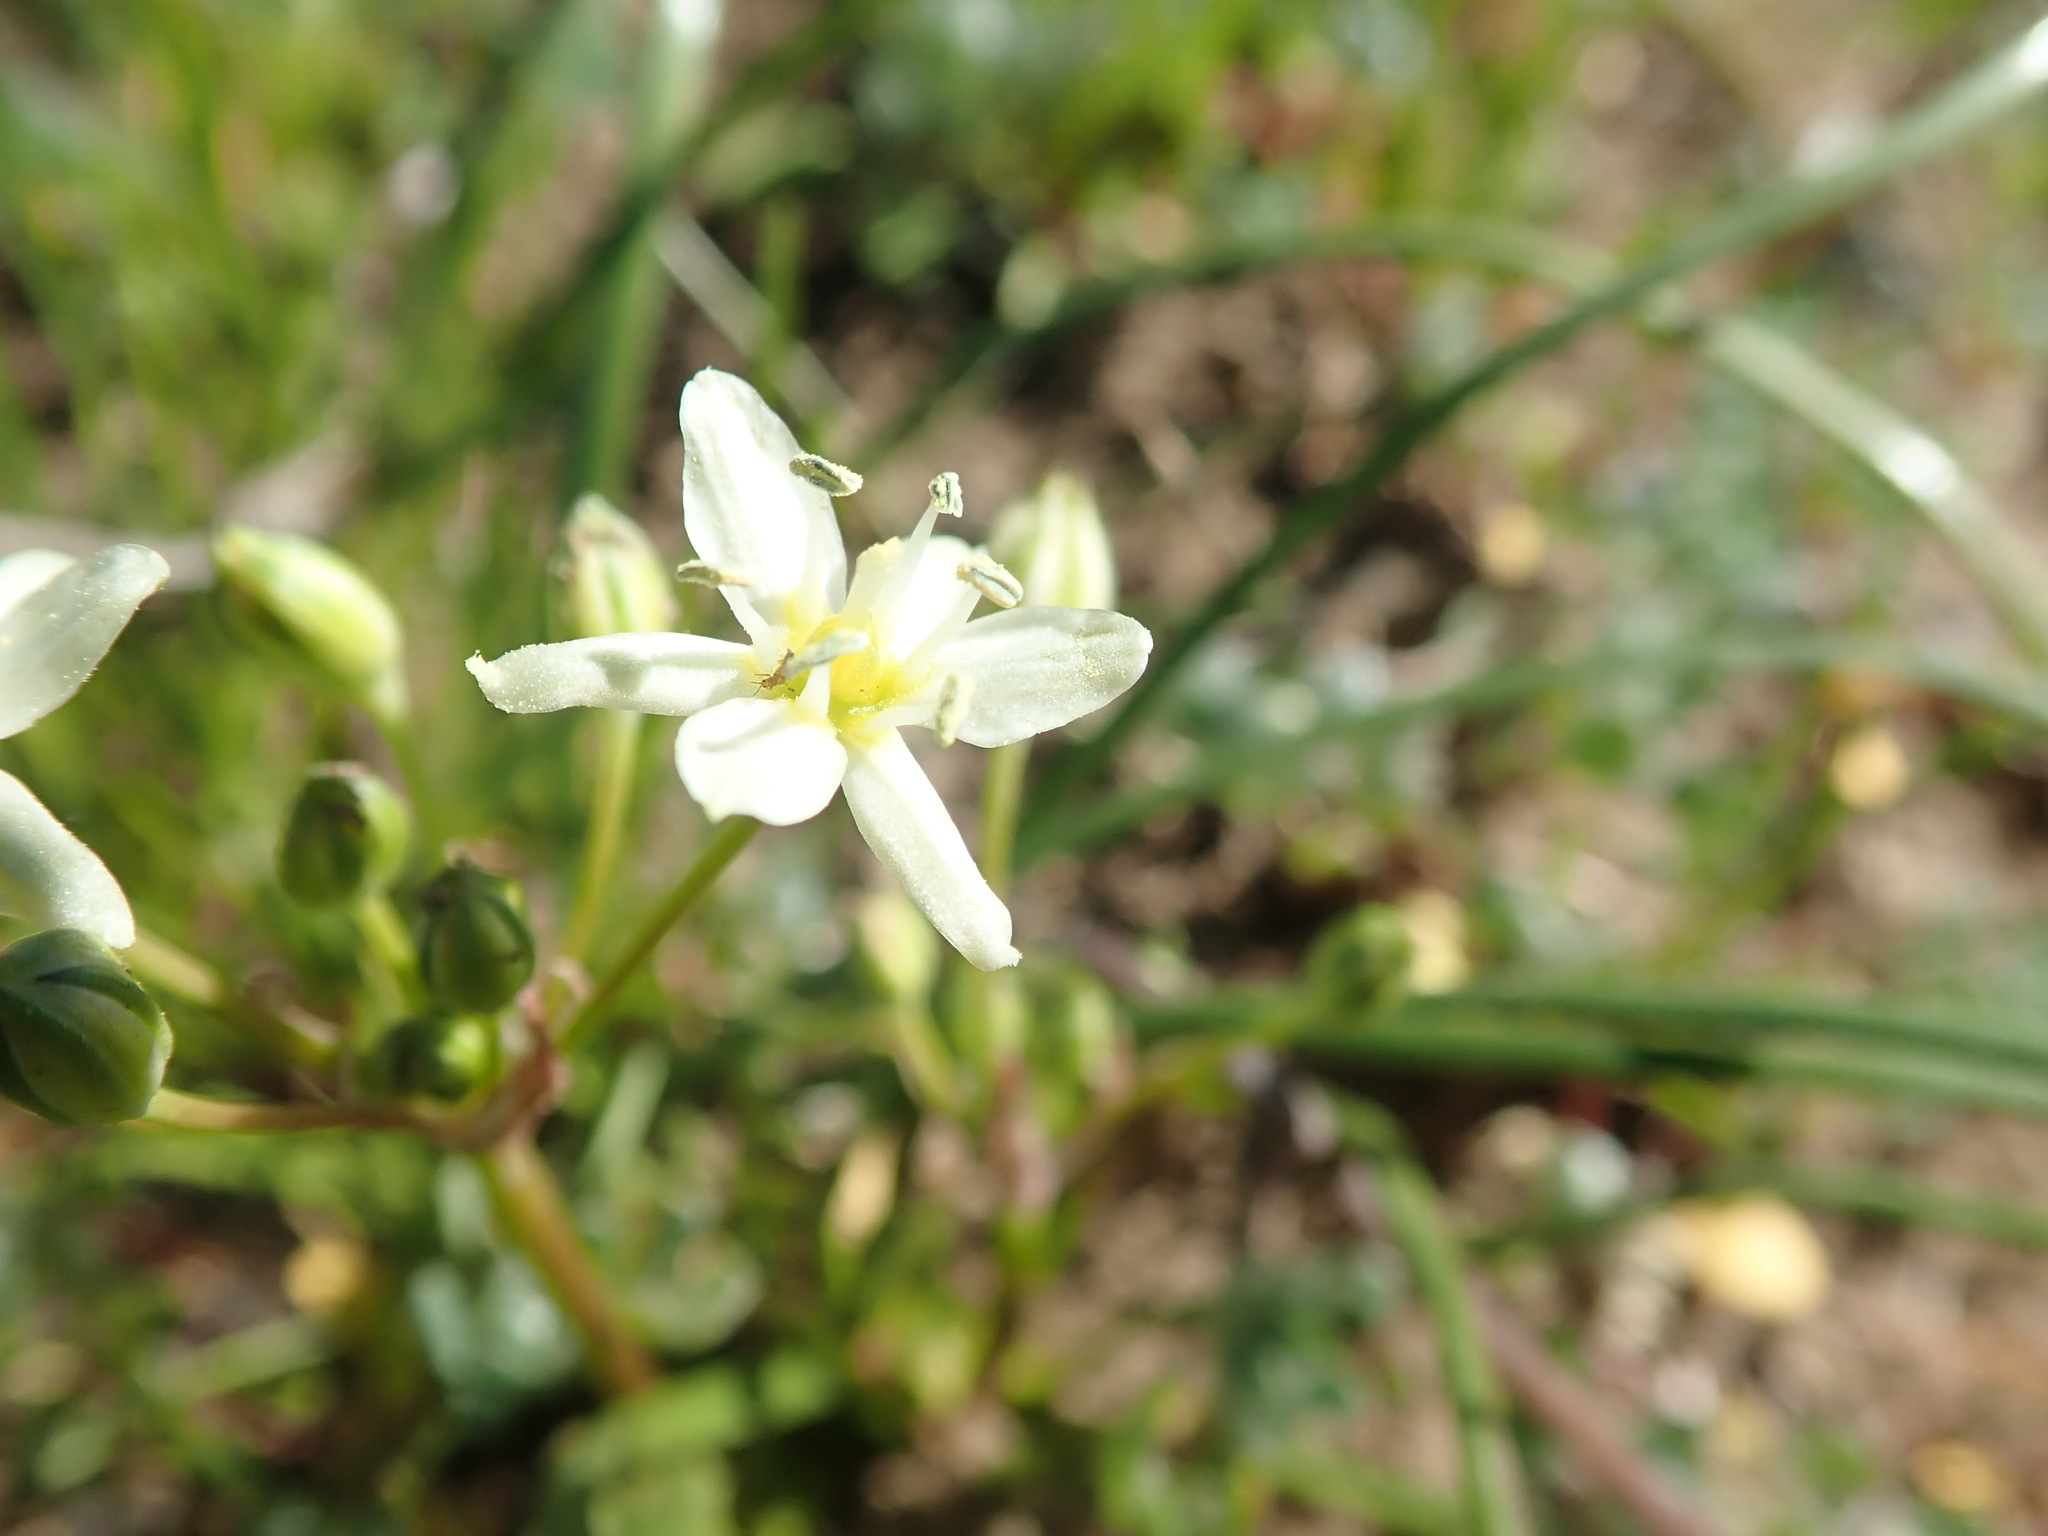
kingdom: Plantae
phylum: Tracheophyta
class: Liliopsida
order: Asparagales
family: Asparagaceae
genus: Muilla
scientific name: Muilla maritima
